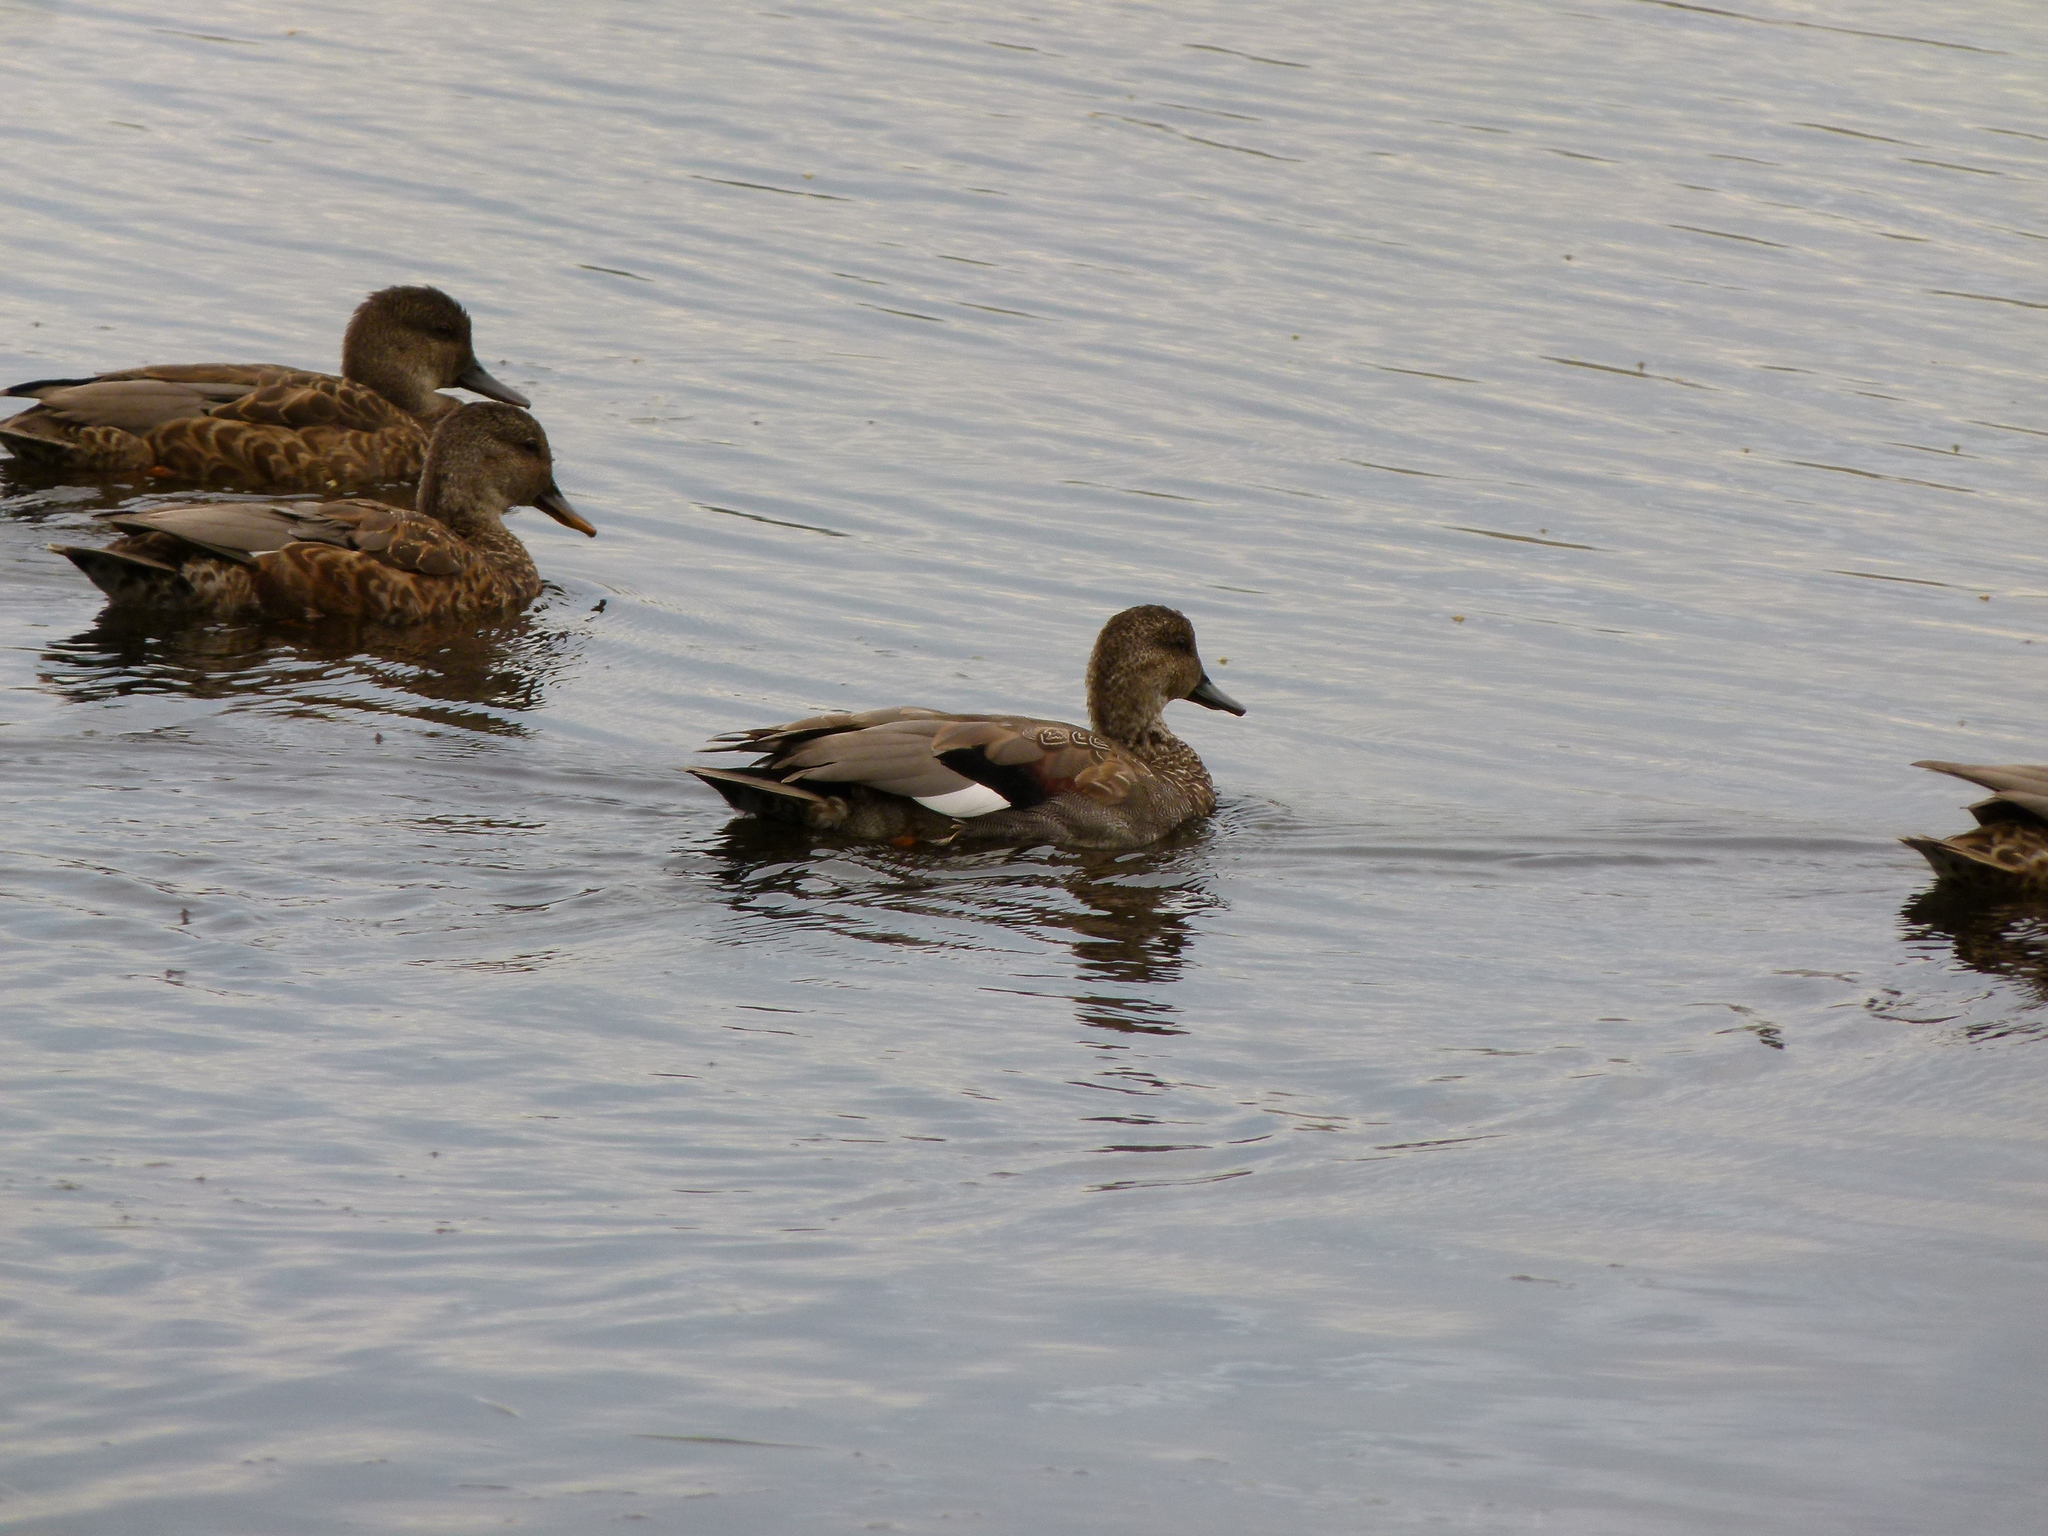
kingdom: Animalia
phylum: Chordata
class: Aves
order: Anseriformes
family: Anatidae
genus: Mareca
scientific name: Mareca strepera
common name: Gadwall
